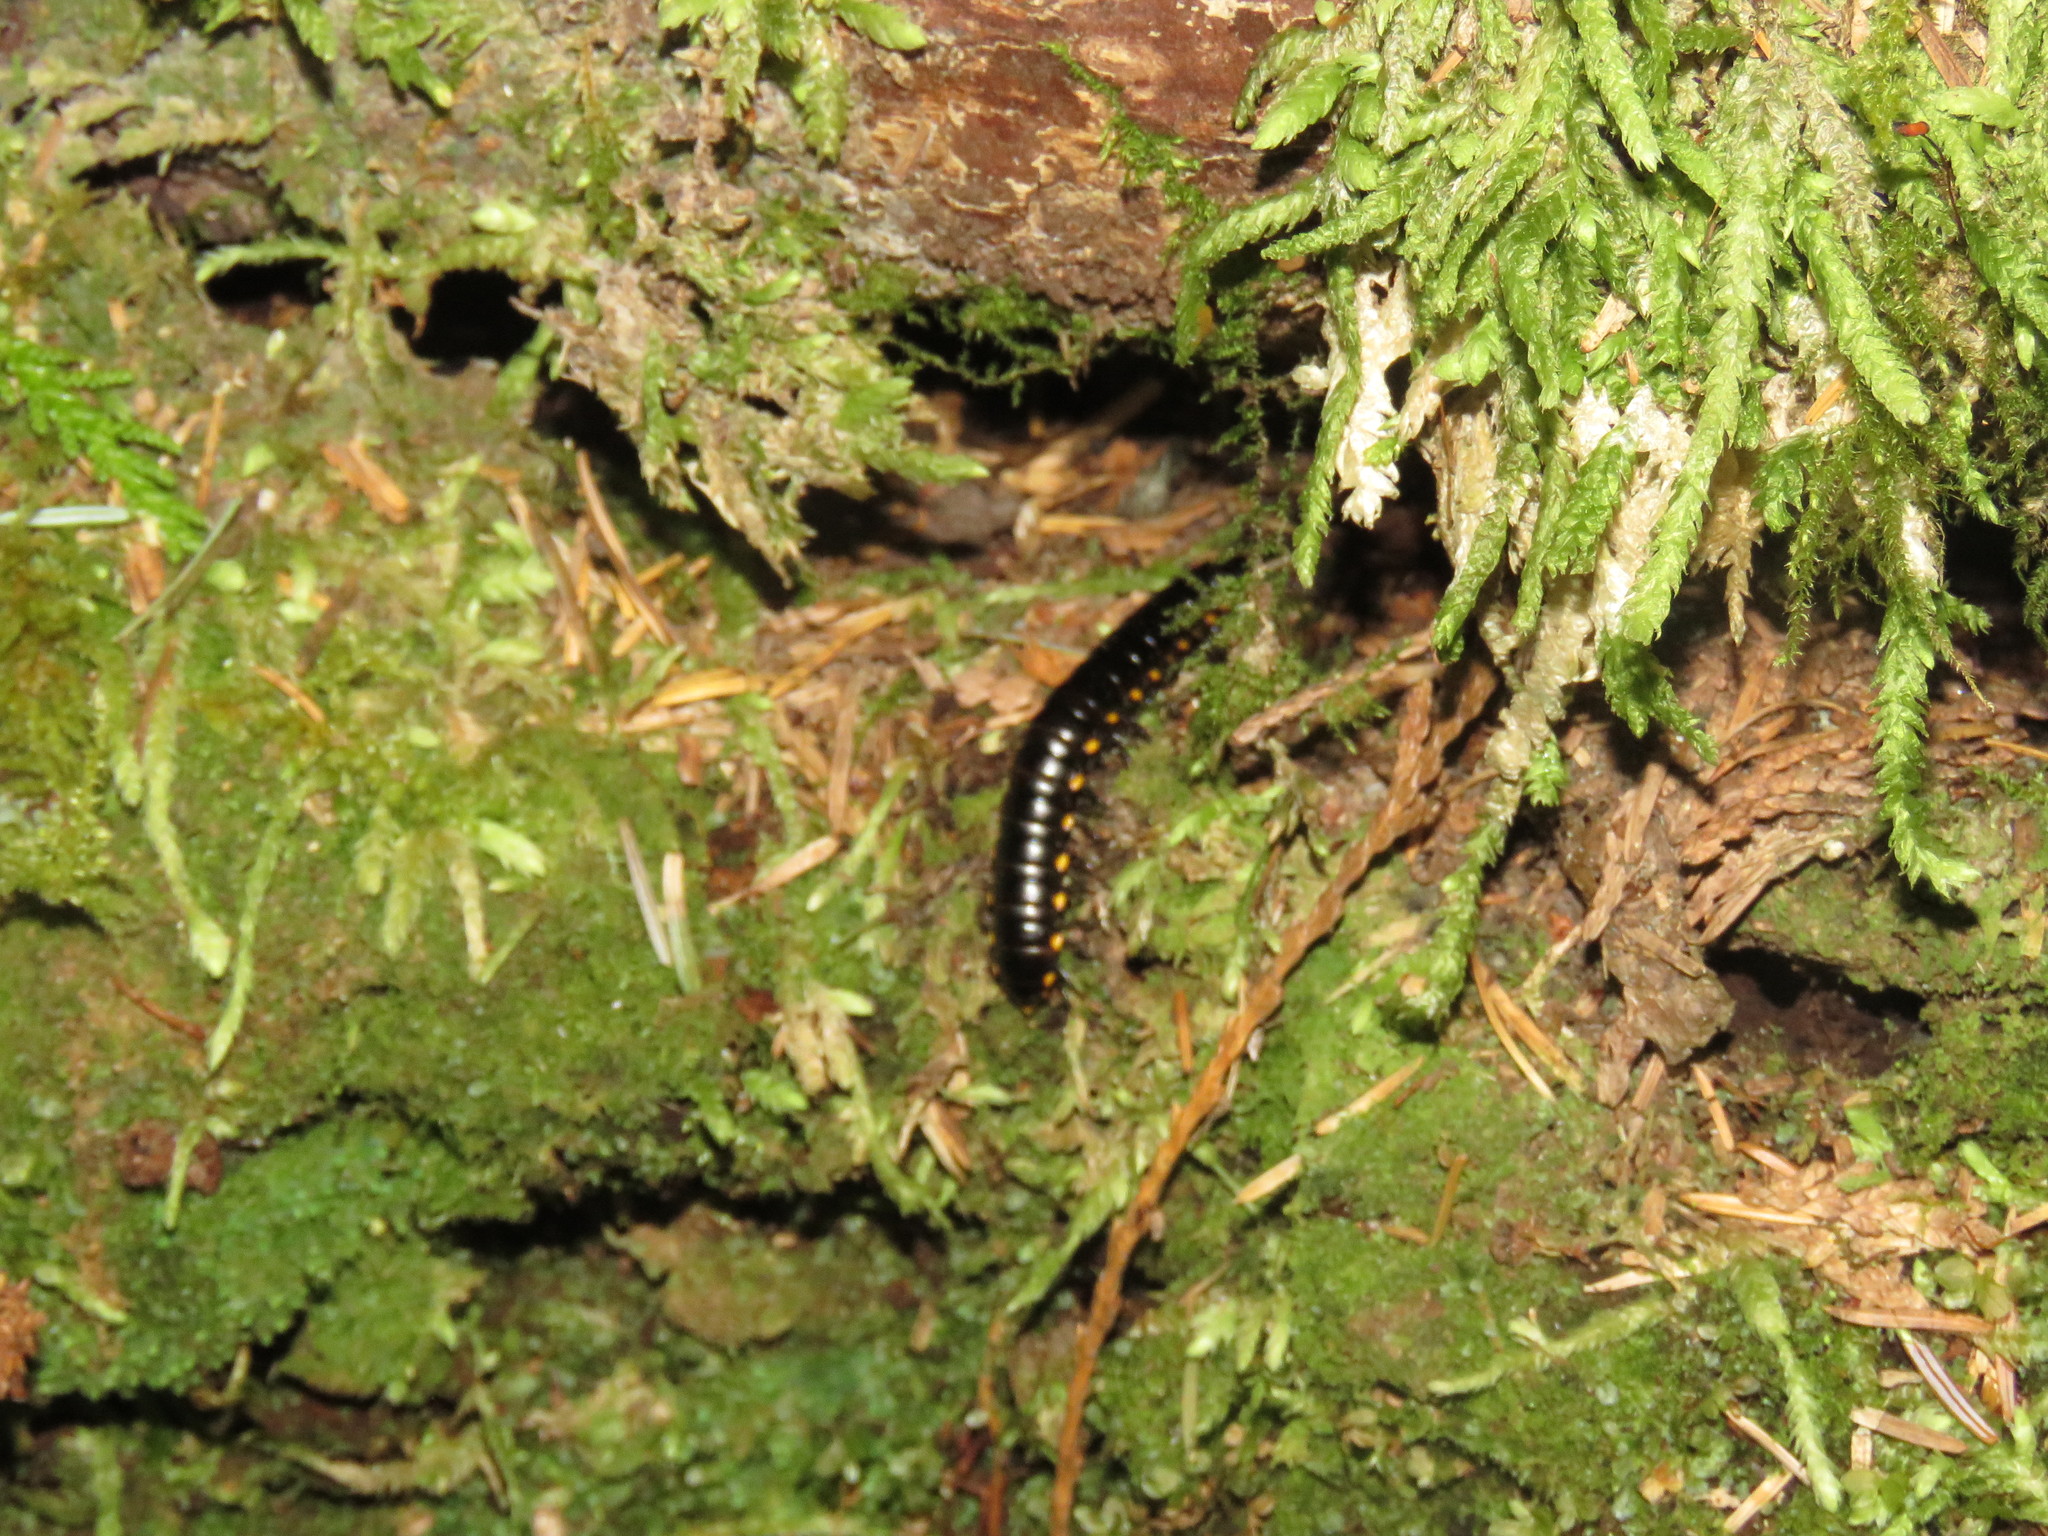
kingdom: Animalia
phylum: Arthropoda
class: Diplopoda
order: Polydesmida
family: Xystodesmidae
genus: Harpaphe
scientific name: Harpaphe haydeniana
